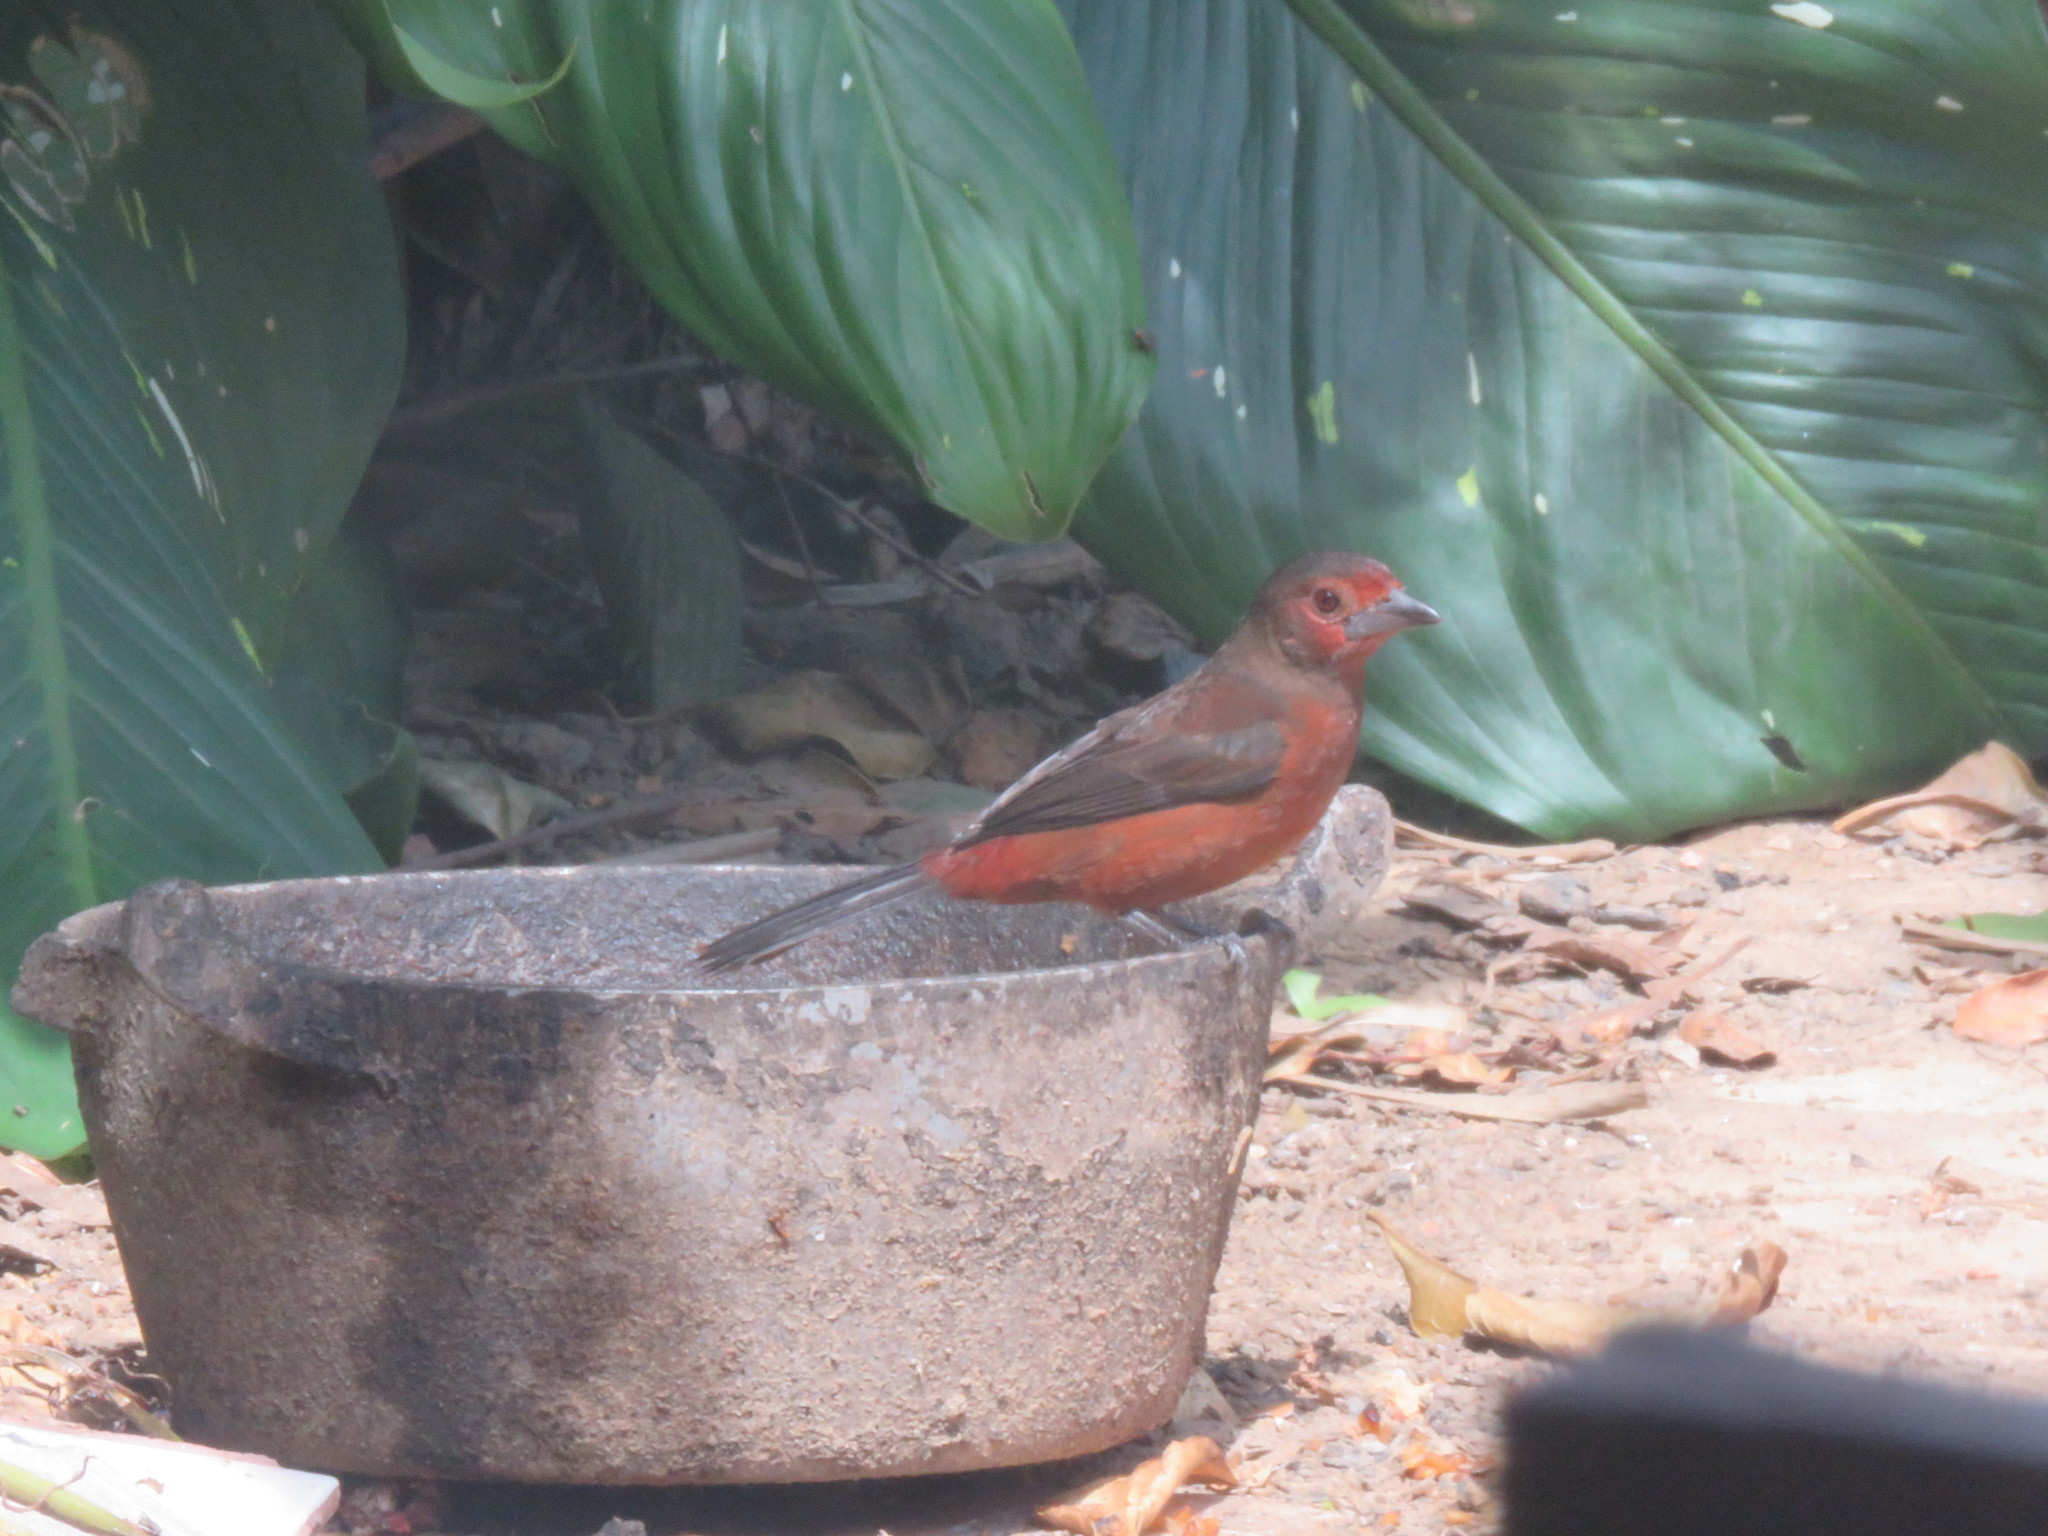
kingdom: Animalia
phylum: Chordata
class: Aves
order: Passeriformes
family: Thraupidae
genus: Ramphocelus
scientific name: Ramphocelus carbo
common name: Silver-beaked tanager
